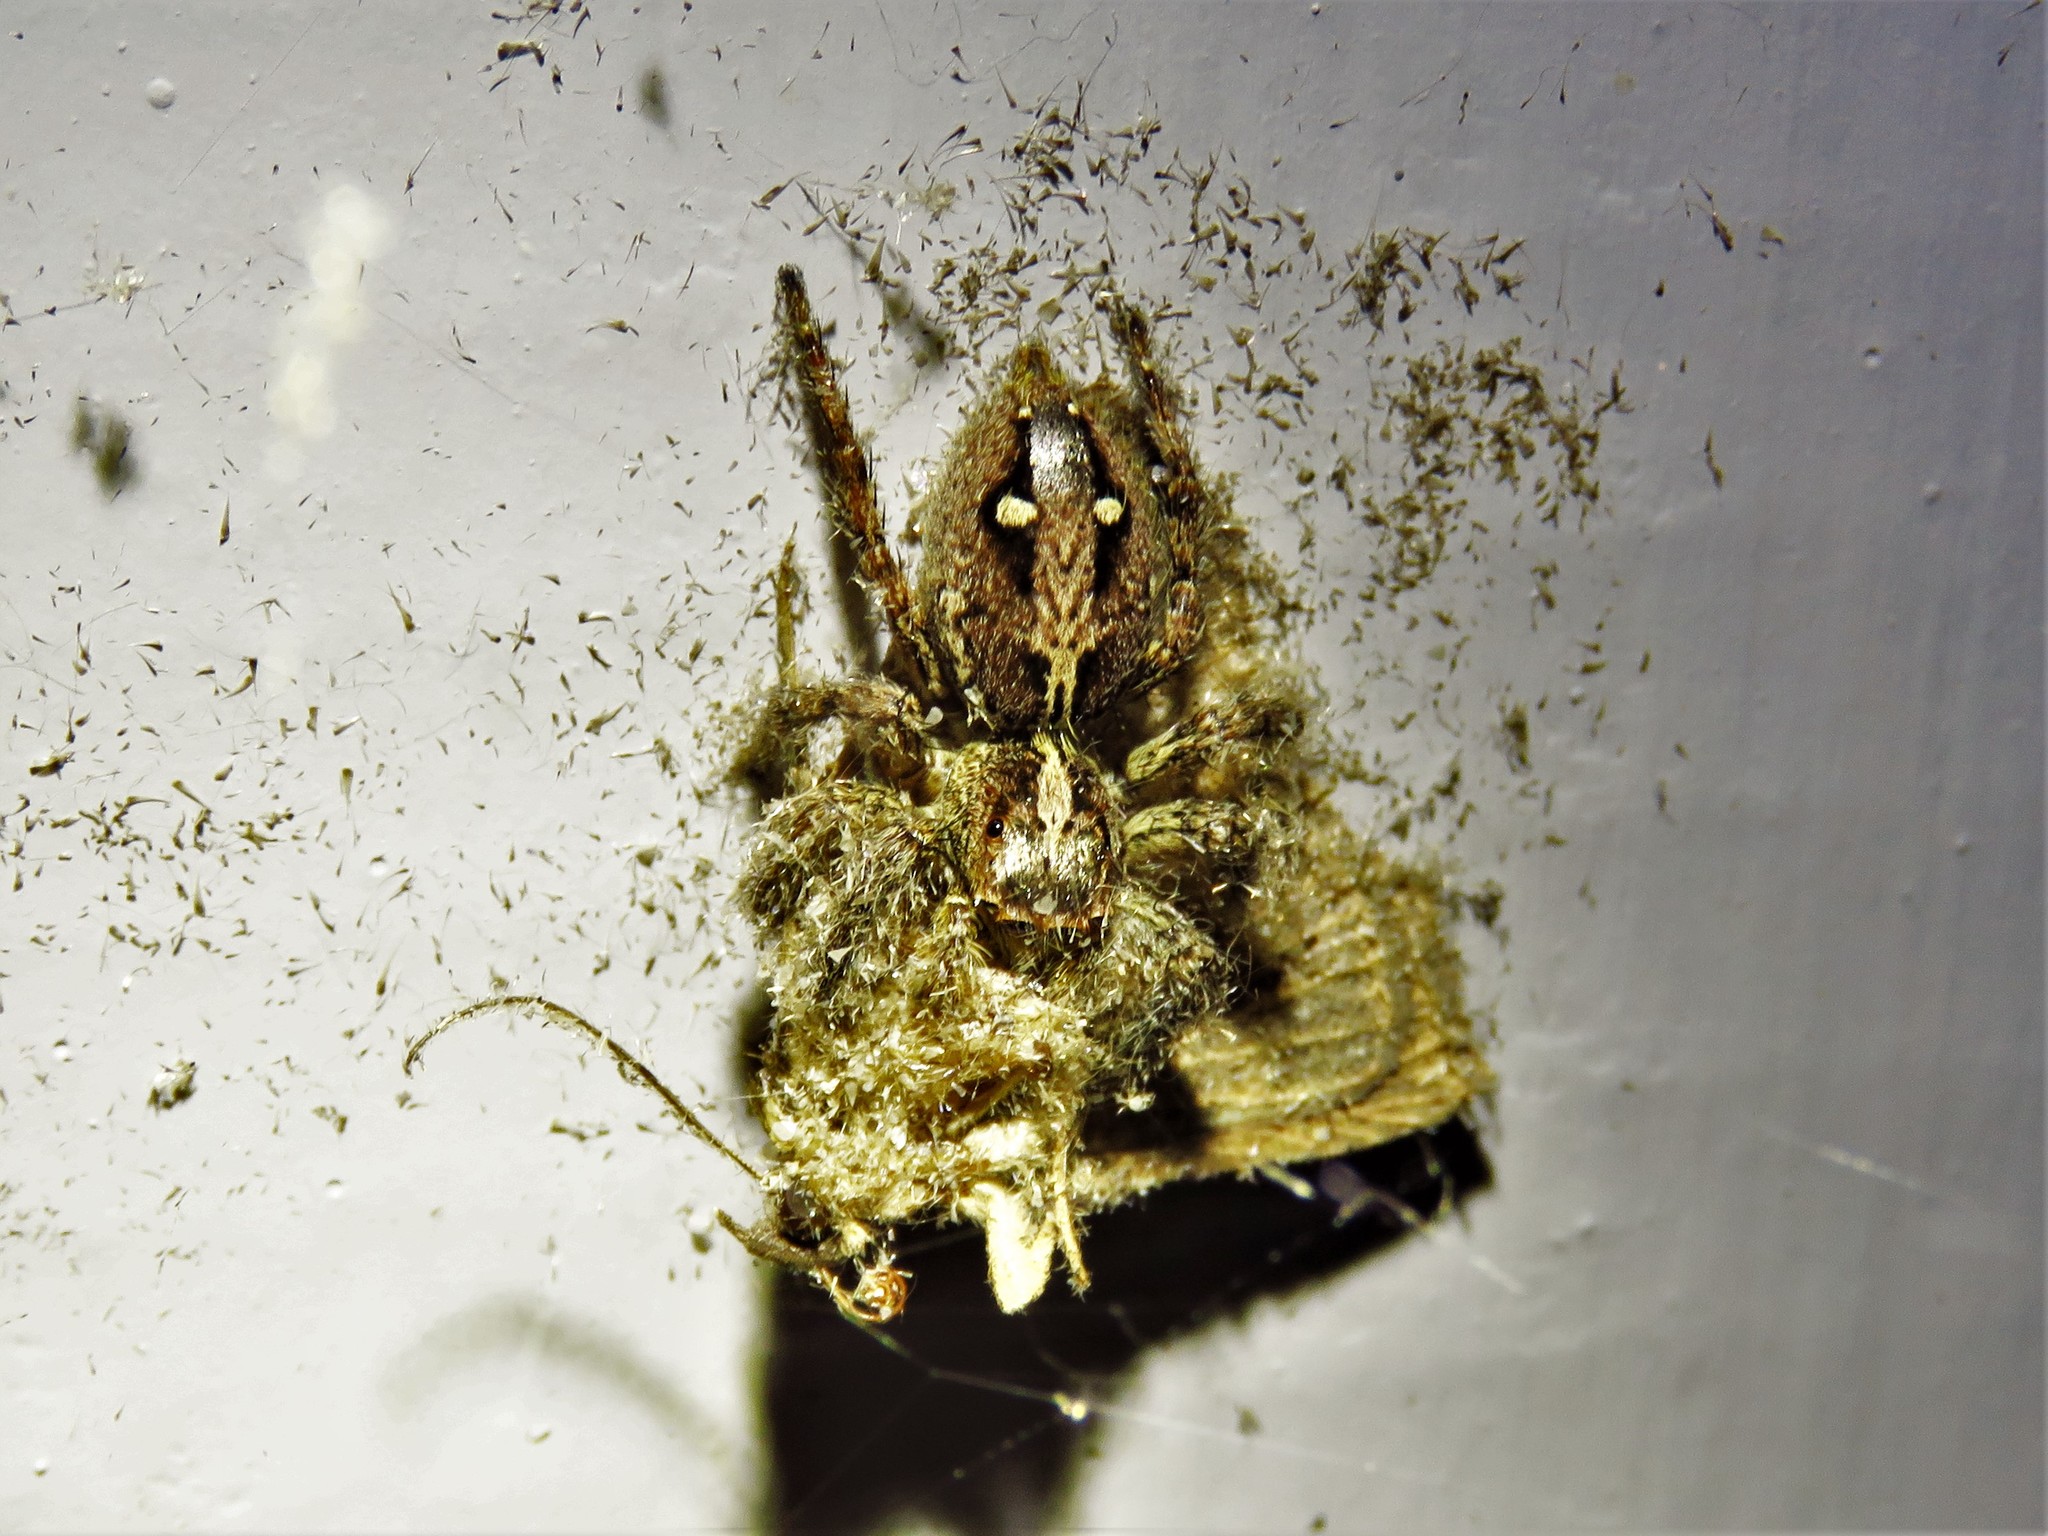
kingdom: Animalia
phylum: Arthropoda
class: Arachnida
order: Araneae
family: Salticidae
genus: Plexippus
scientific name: Plexippus paykulli
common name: Pantropical jumper
